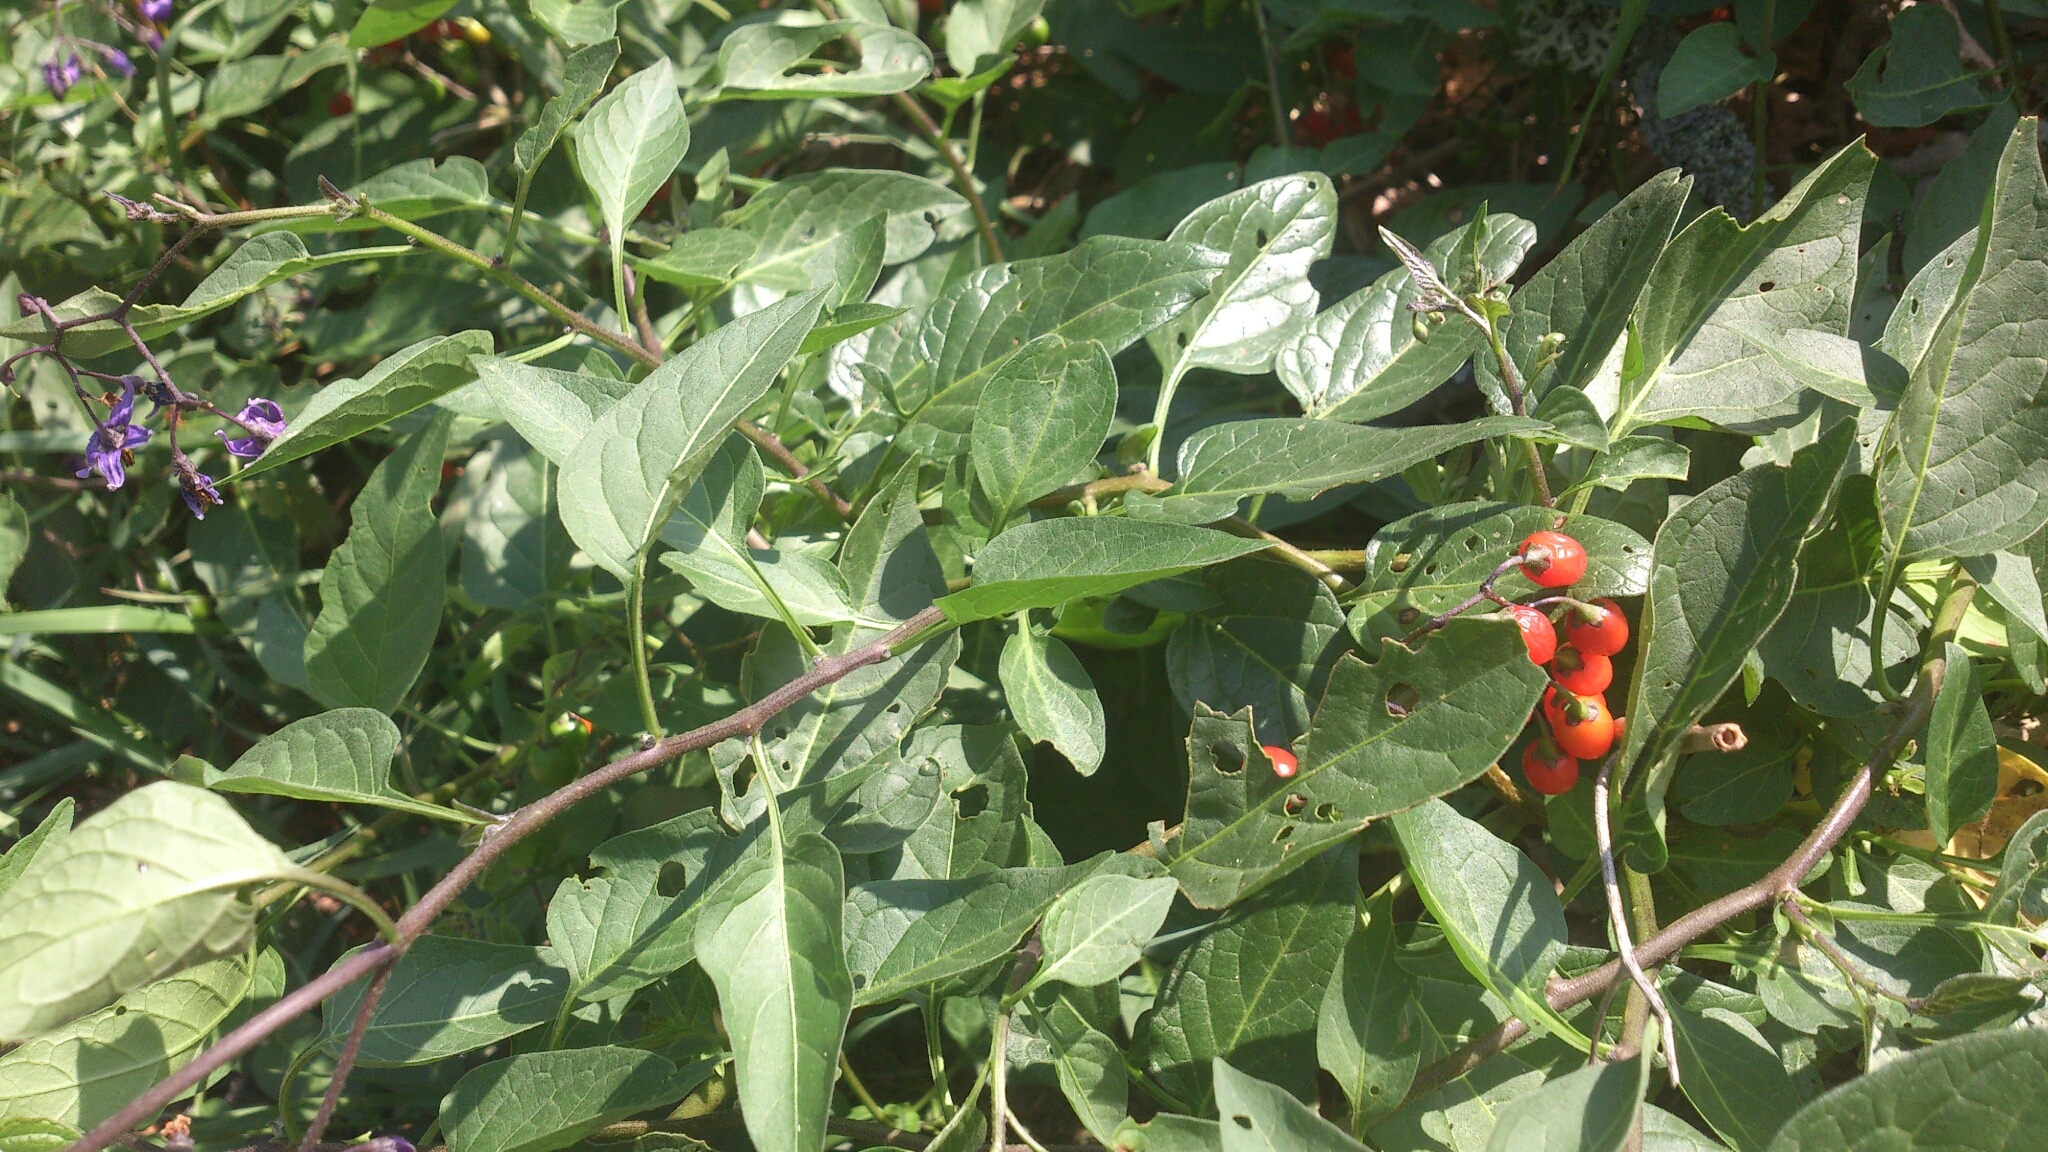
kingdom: Plantae
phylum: Tracheophyta
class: Magnoliopsida
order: Solanales
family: Solanaceae
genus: Solanum
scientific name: Solanum dulcamara
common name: Climbing nightshade
